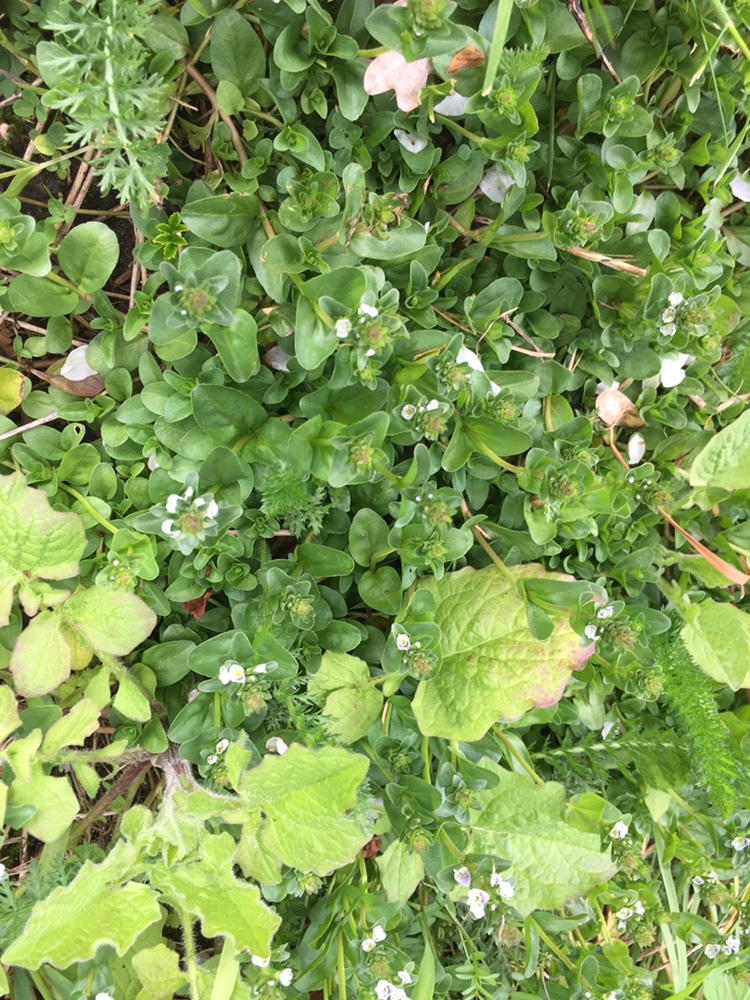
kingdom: Plantae
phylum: Tracheophyta
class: Magnoliopsida
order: Lamiales
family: Plantaginaceae
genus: Veronica
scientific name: Veronica serpyllifolia
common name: Thyme-leaved speedwell
